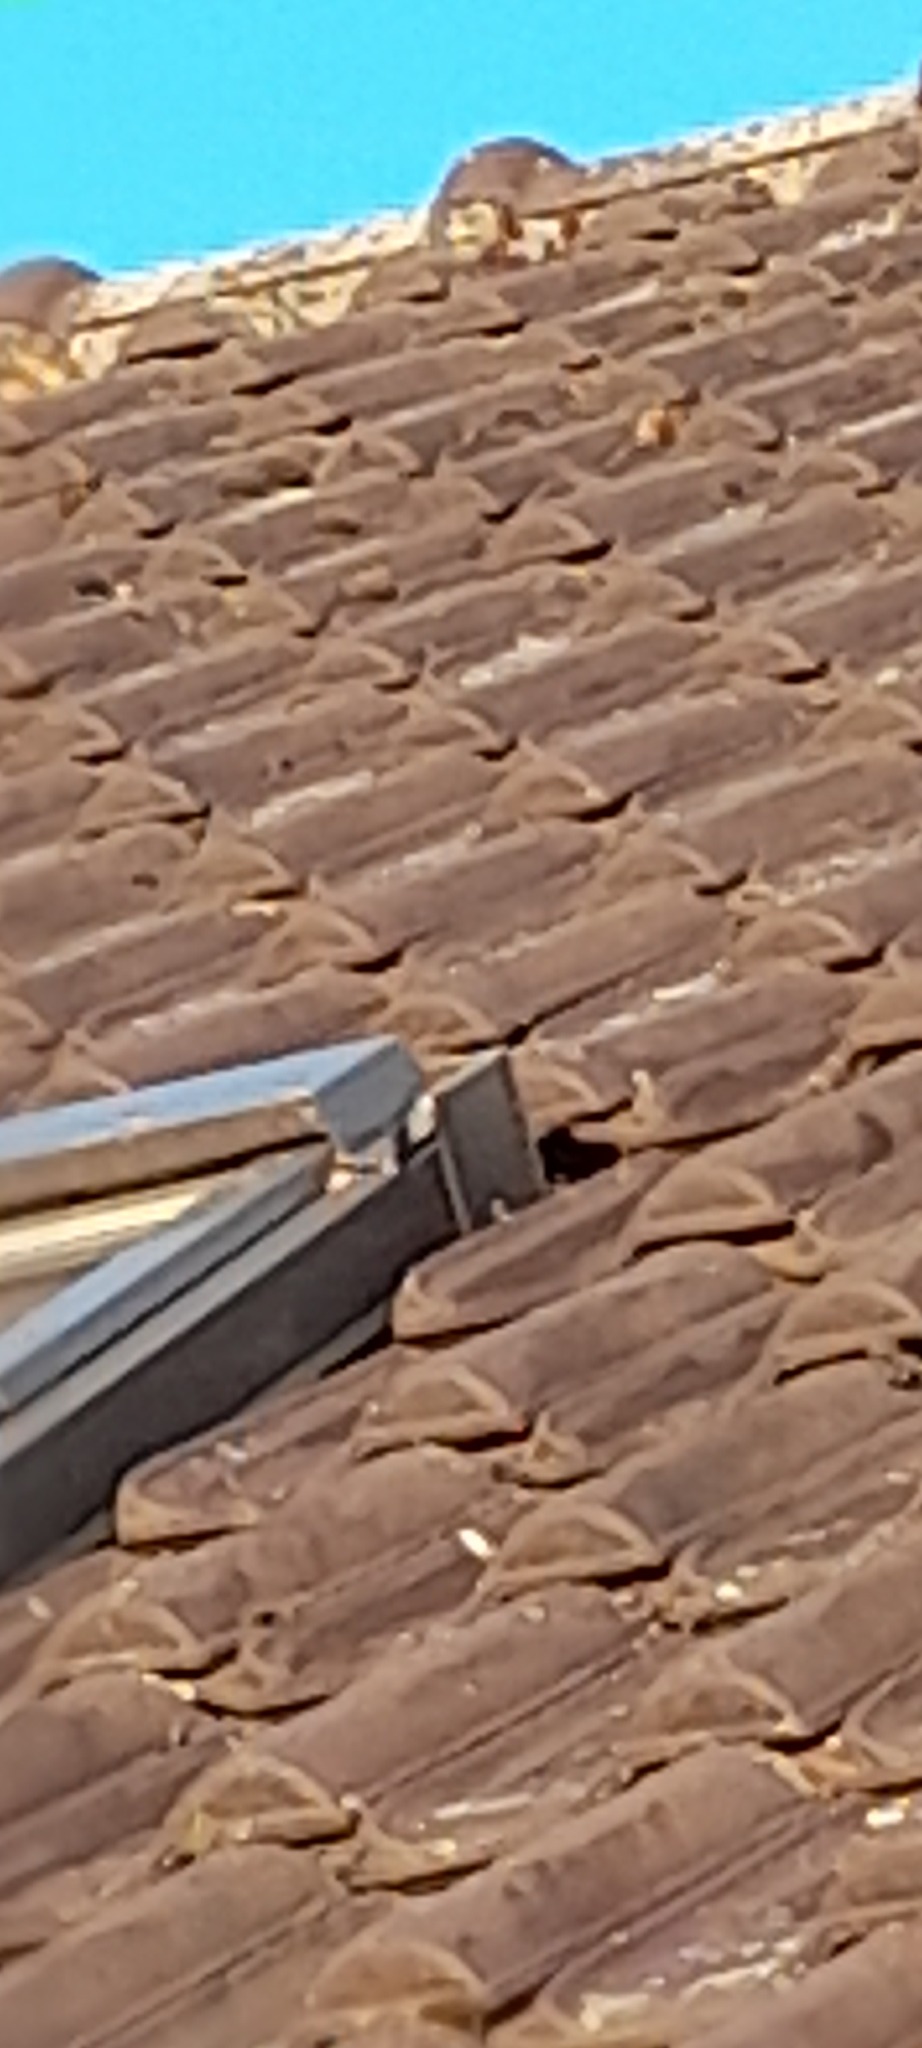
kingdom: Animalia
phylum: Arthropoda
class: Insecta
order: Hymenoptera
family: Vespidae
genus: Vespa
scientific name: Vespa velutina
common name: Asian hornet
